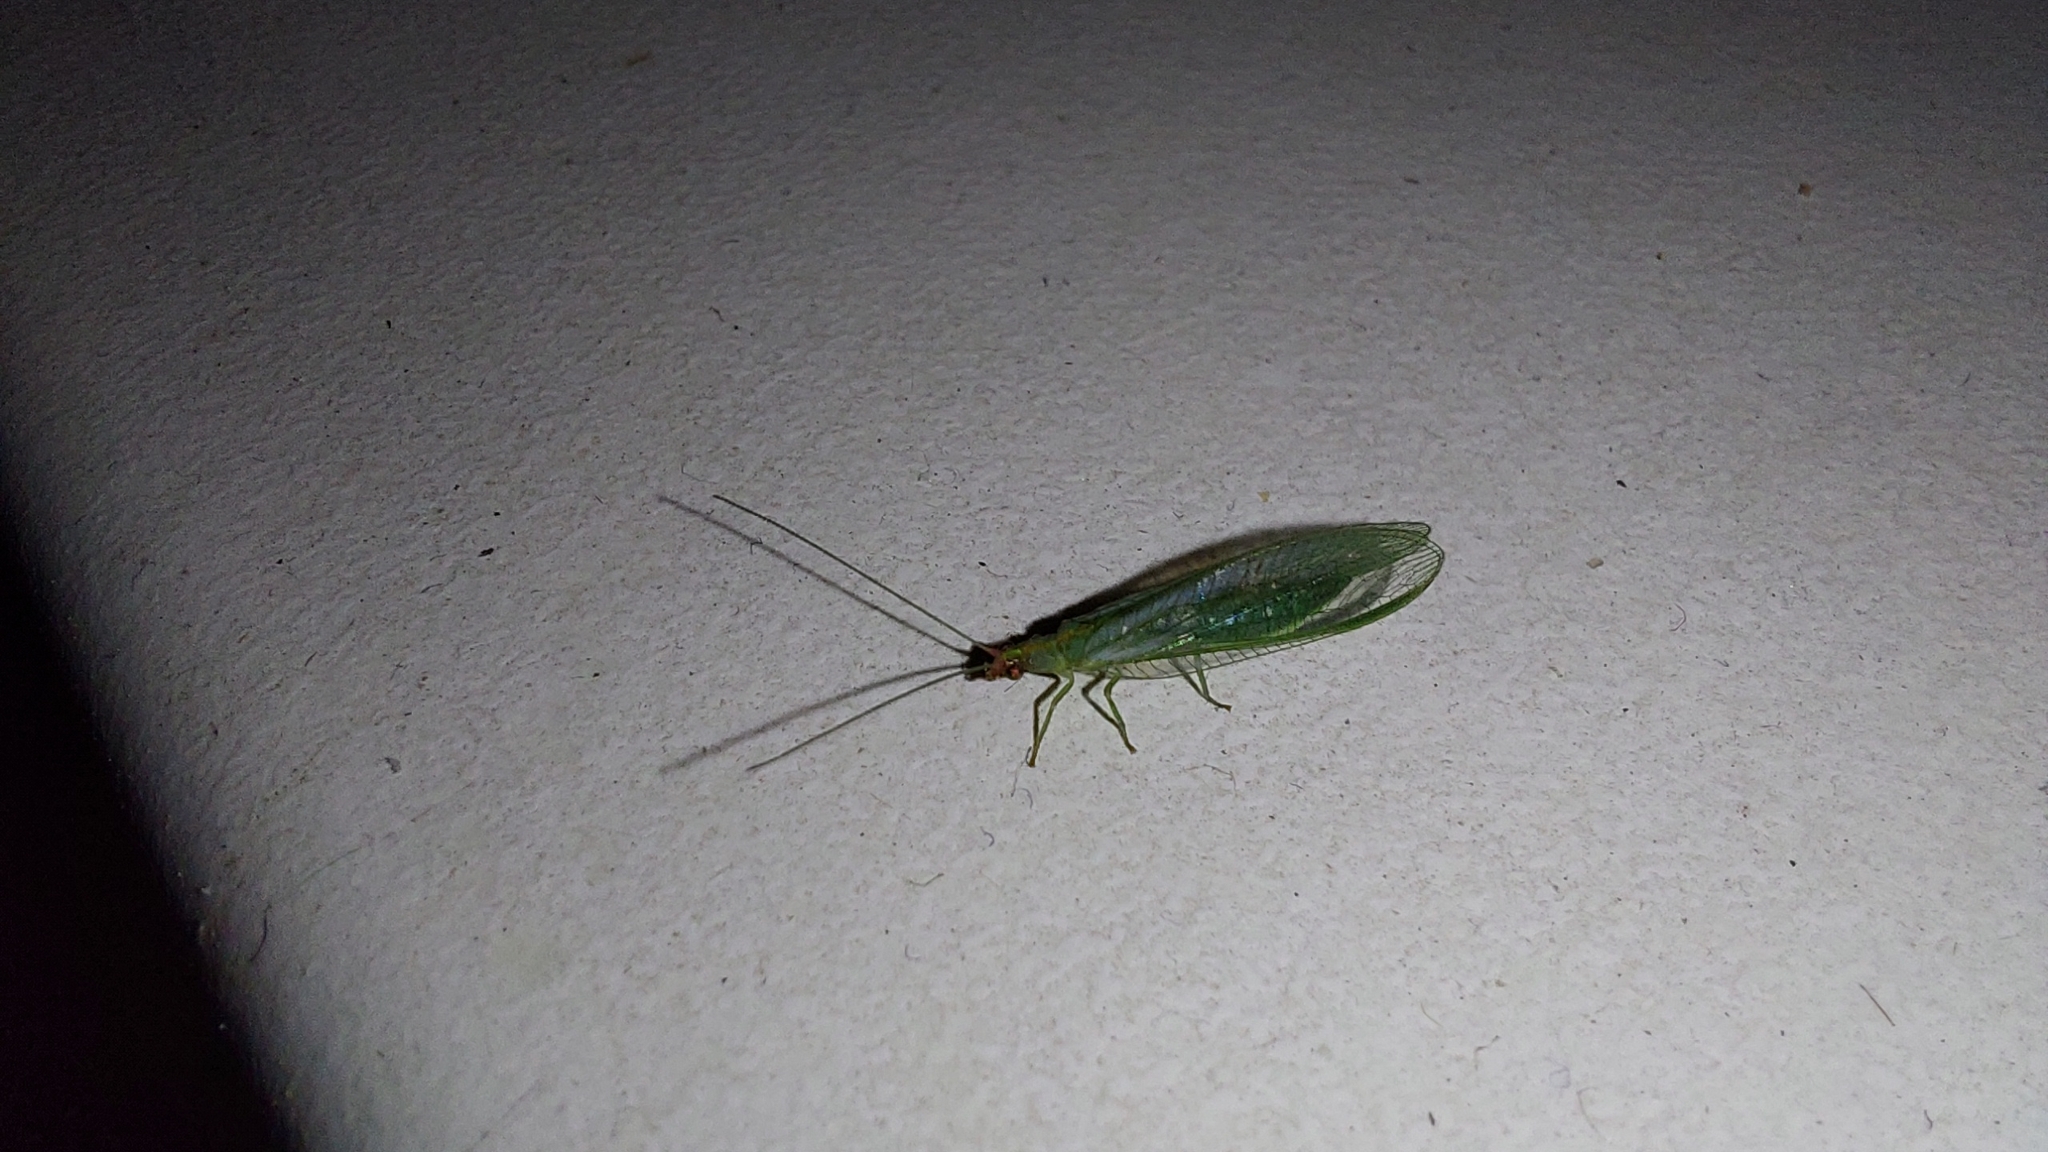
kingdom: Animalia
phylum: Arthropoda
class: Insecta
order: Neuroptera
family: Chrysopidae
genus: Peyerimhoffina
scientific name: Peyerimhoffina gracilis
